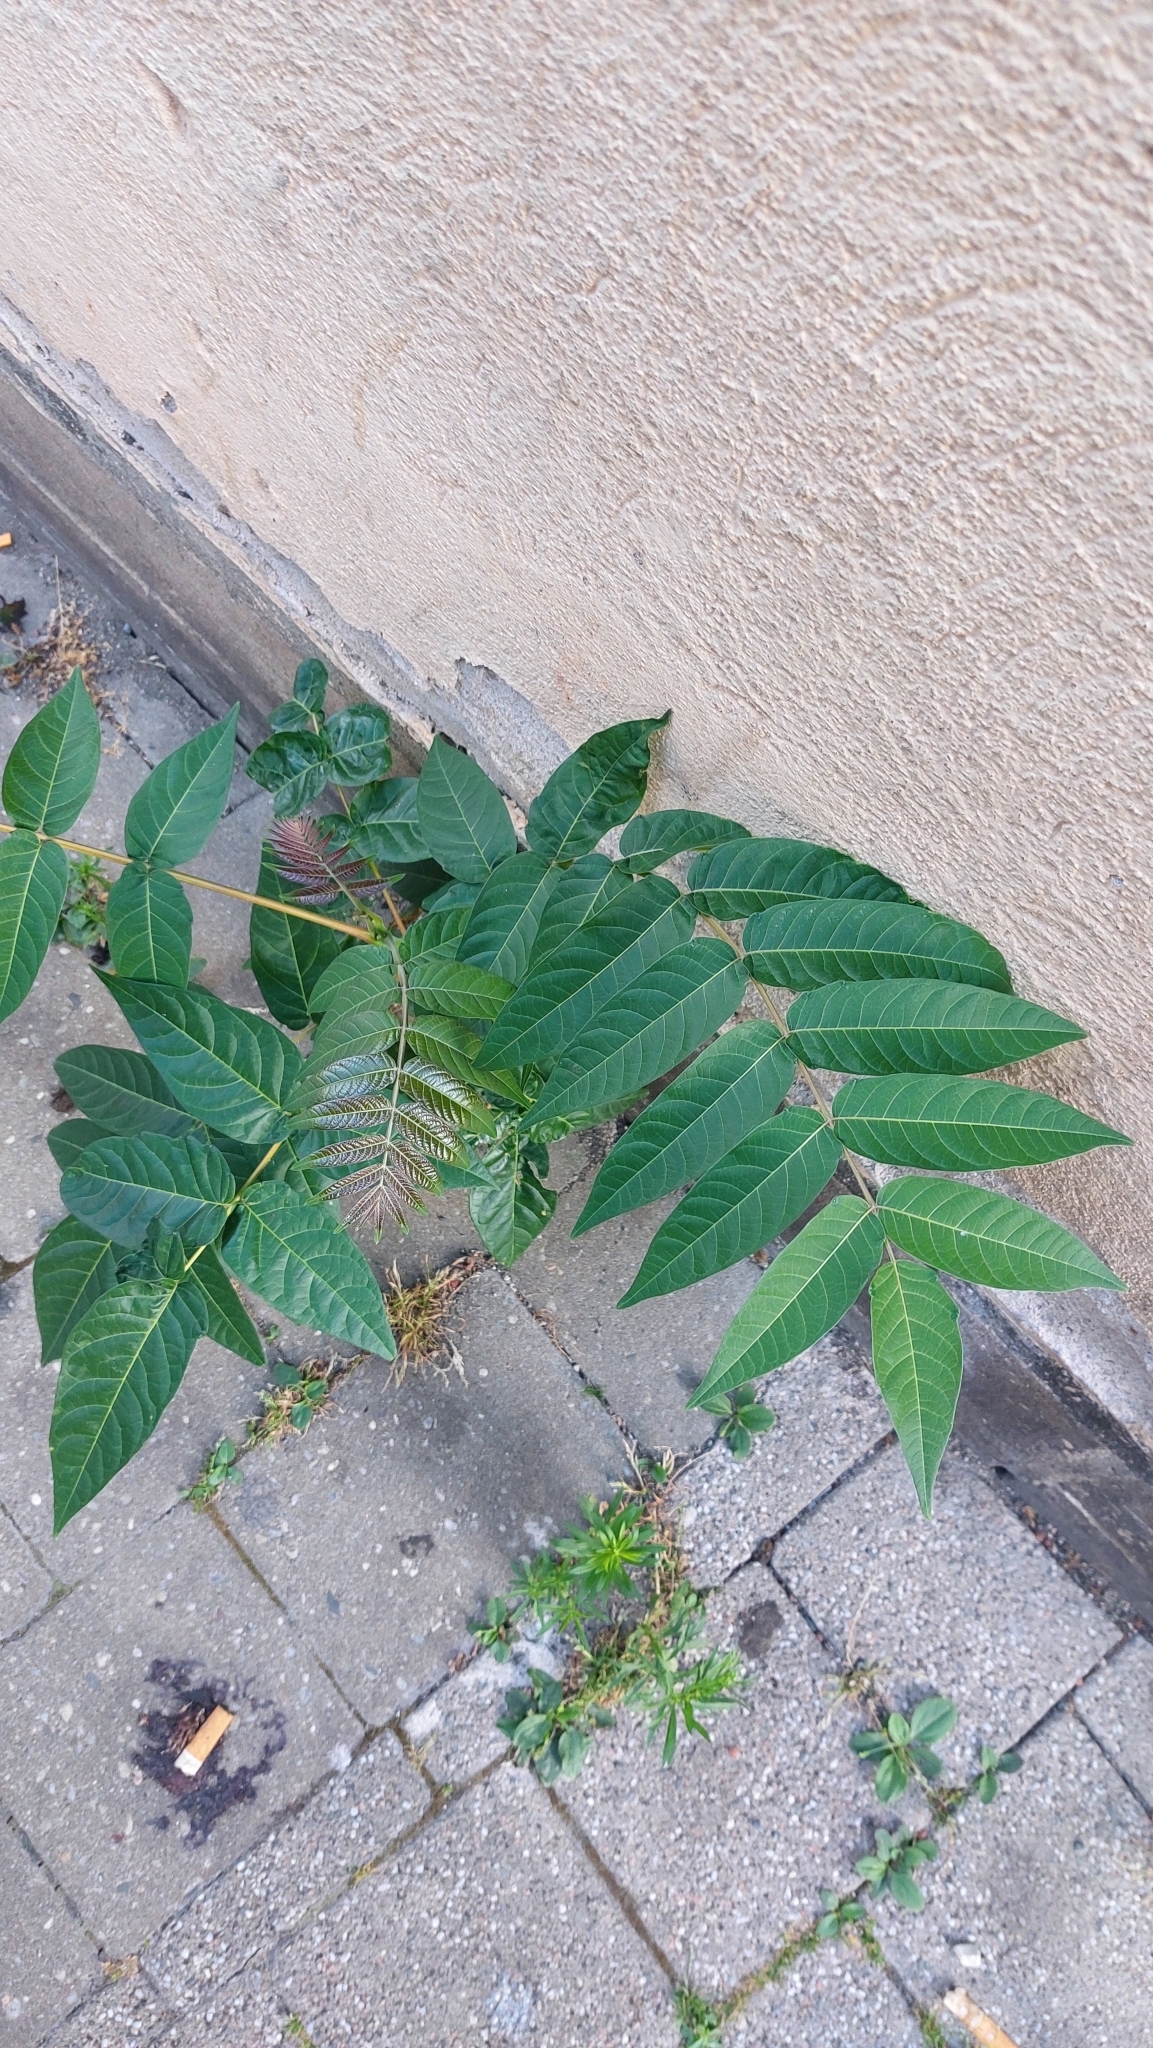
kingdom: Plantae
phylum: Tracheophyta
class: Magnoliopsida
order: Sapindales
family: Simaroubaceae
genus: Ailanthus
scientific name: Ailanthus altissima
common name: Tree-of-heaven
